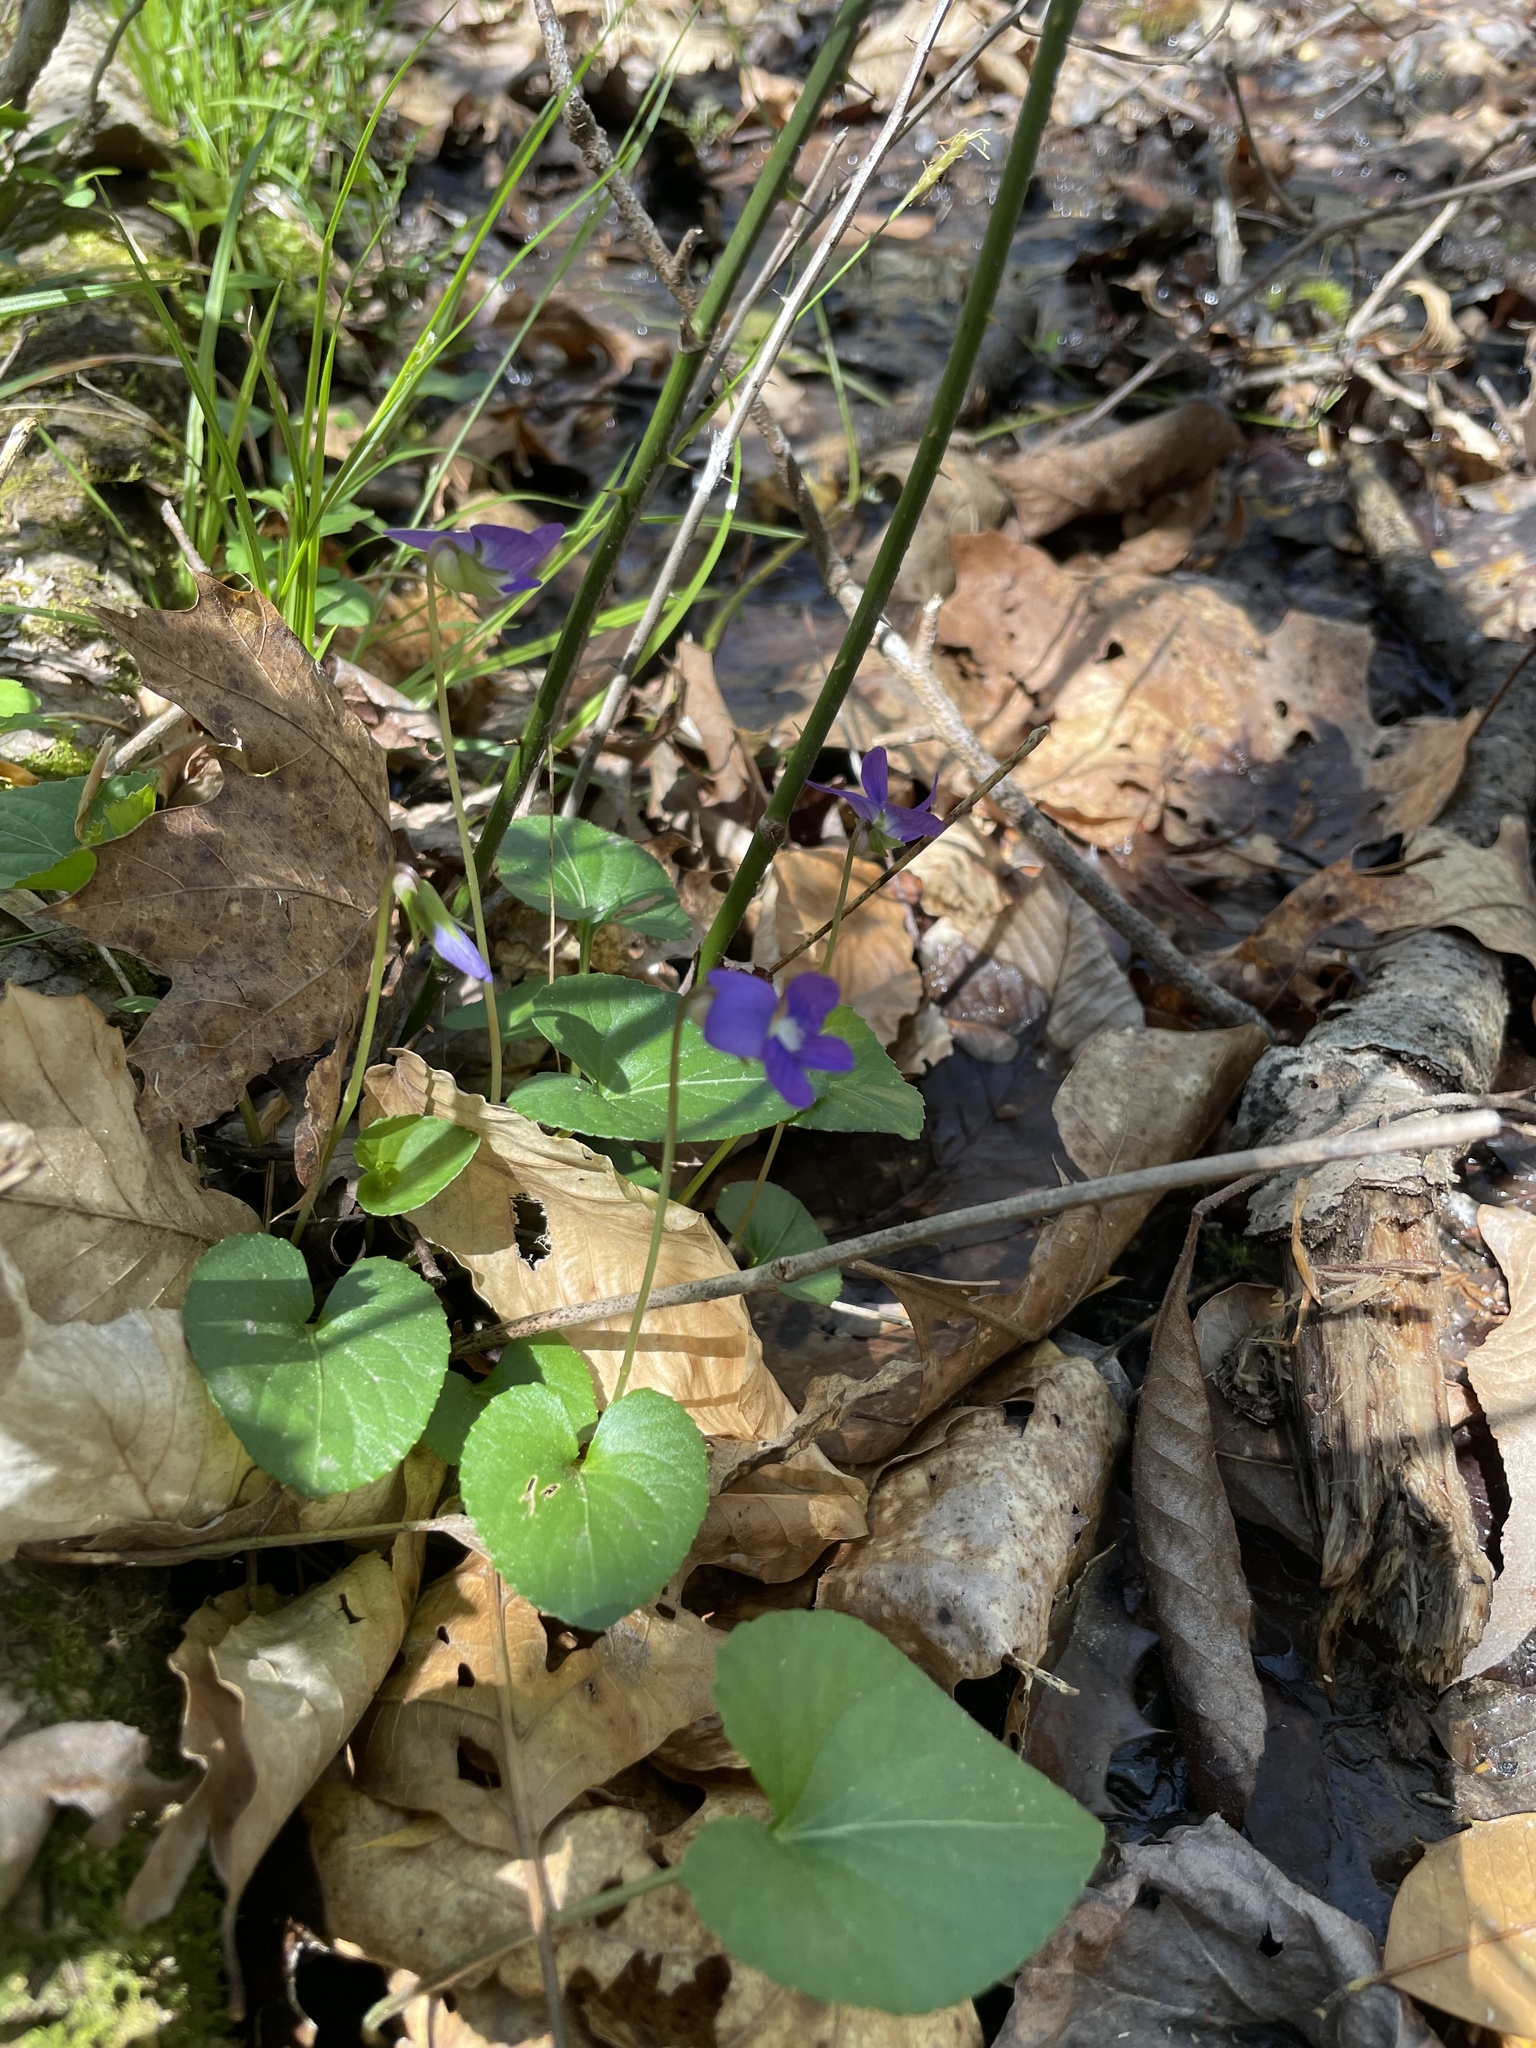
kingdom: Plantae
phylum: Tracheophyta
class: Magnoliopsida
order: Malpighiales
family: Violaceae
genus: Viola
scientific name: Viola sororia
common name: Dooryard violet
